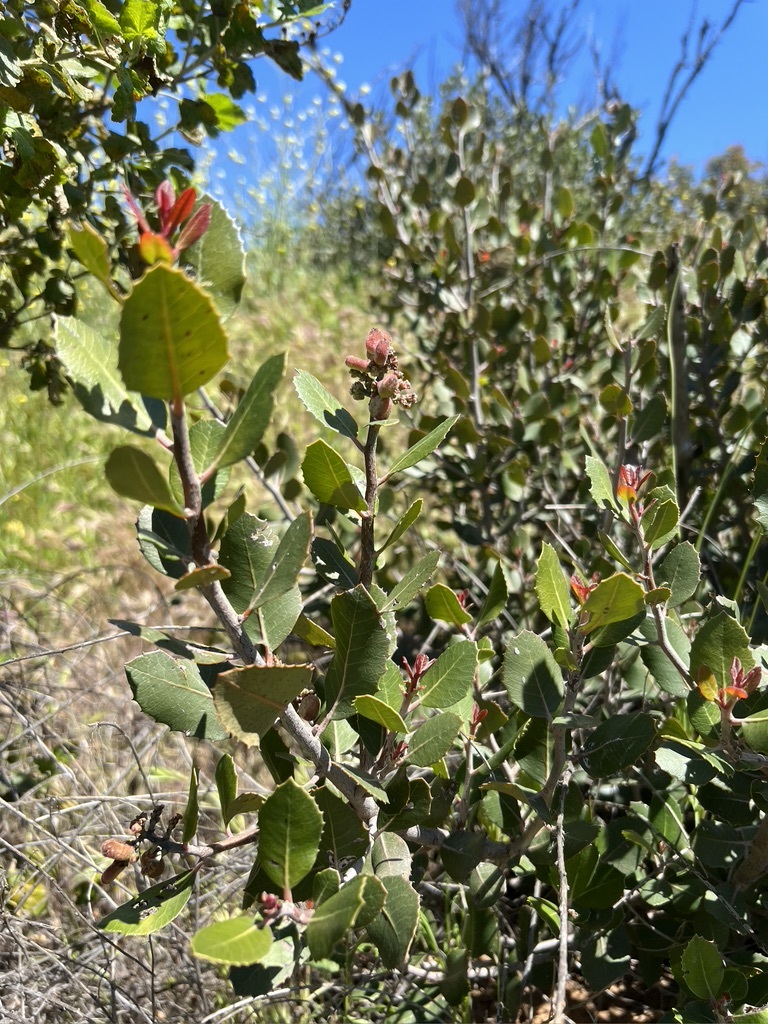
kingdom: Plantae
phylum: Tracheophyta
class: Magnoliopsida
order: Sapindales
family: Anacardiaceae
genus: Rhus
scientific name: Rhus integrifolia
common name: Lemonade sumac
